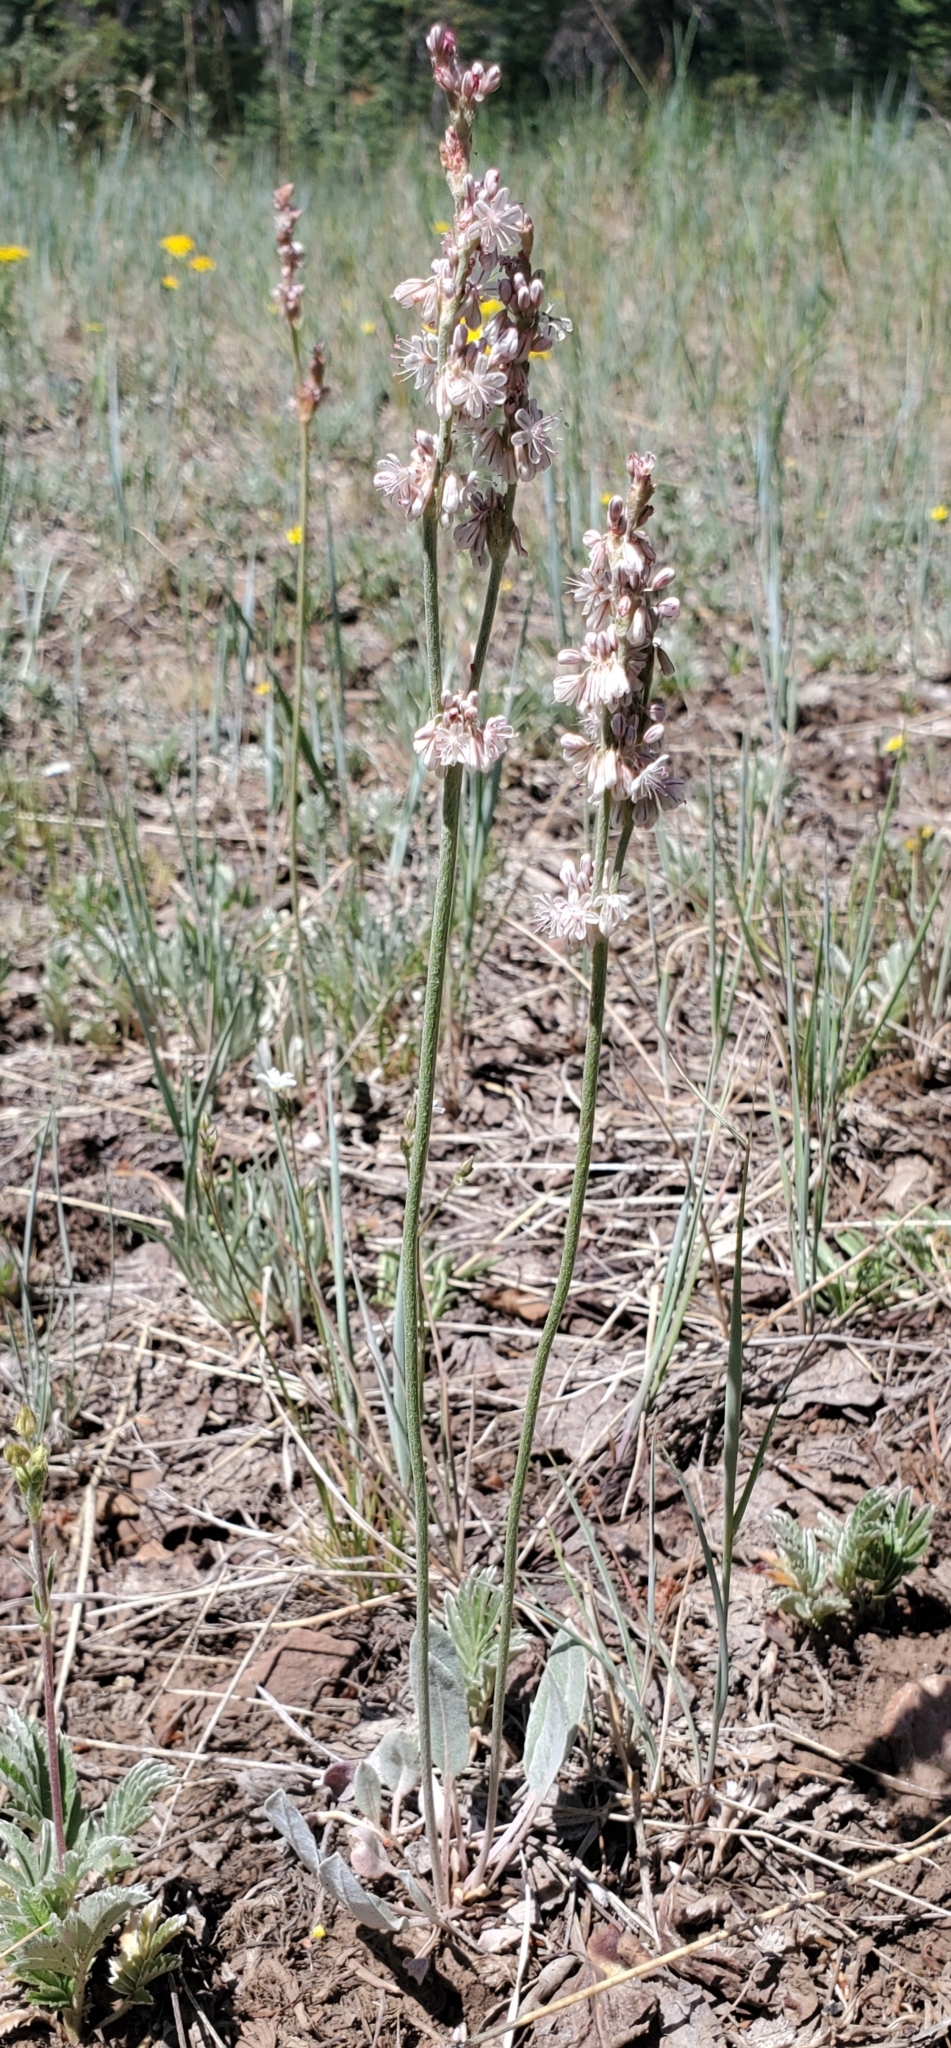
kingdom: Plantae
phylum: Tracheophyta
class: Magnoliopsida
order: Caryophyllales
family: Polygonaceae
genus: Eriogonum
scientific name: Eriogonum racemosum
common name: Redroot wild buckwheat
